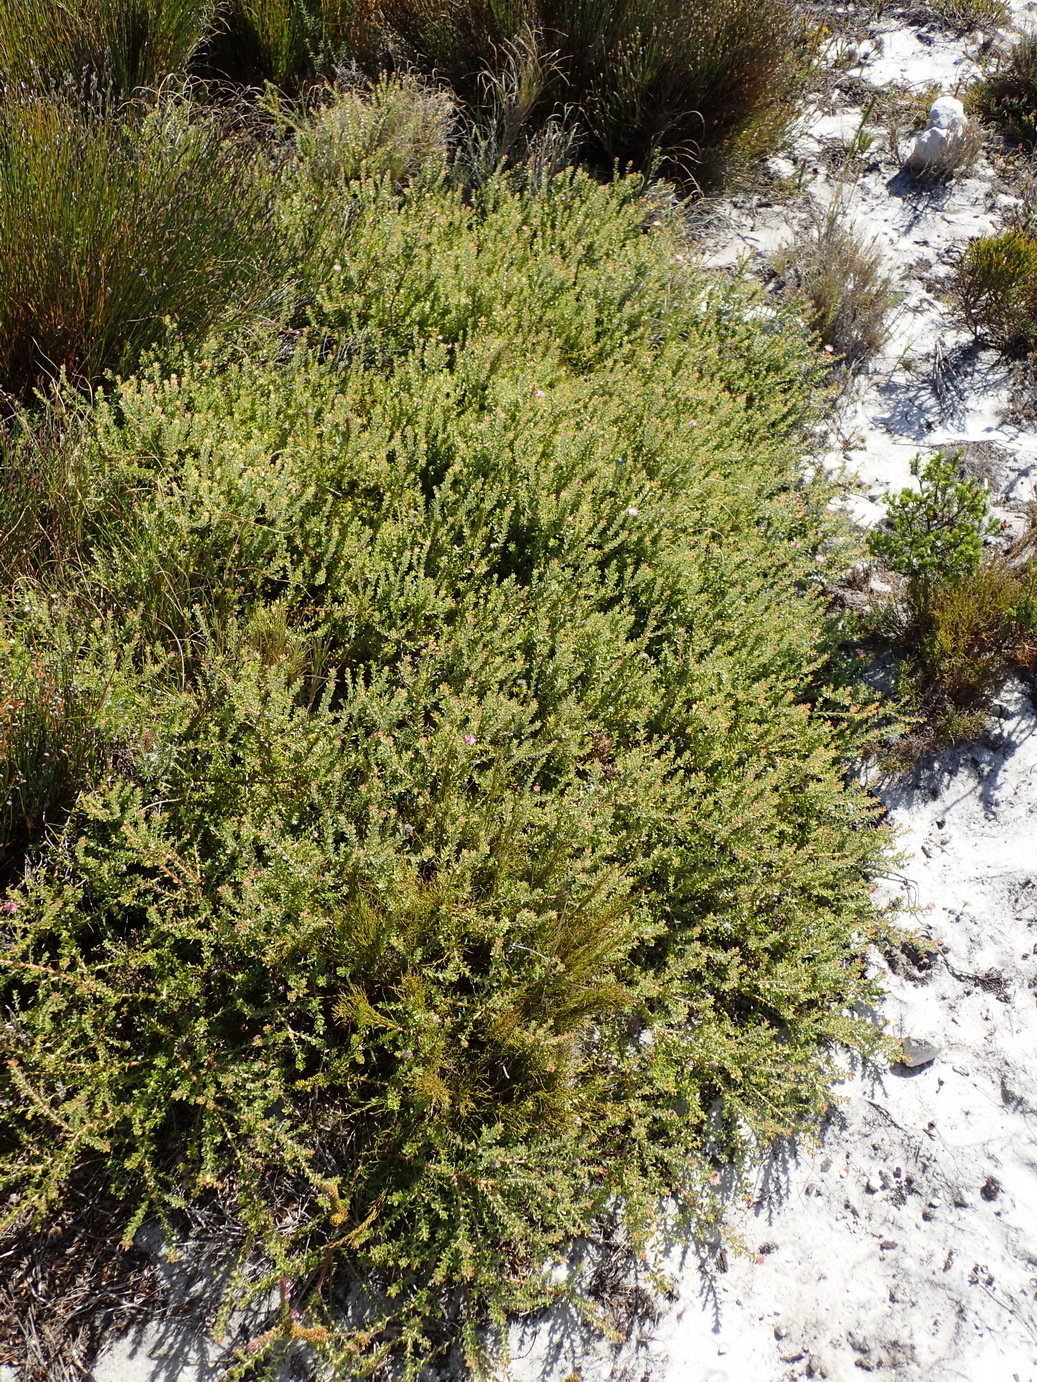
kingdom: Plantae
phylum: Tracheophyta
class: Magnoliopsida
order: Proteales
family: Proteaceae
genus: Diastella
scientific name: Diastella divaricata
